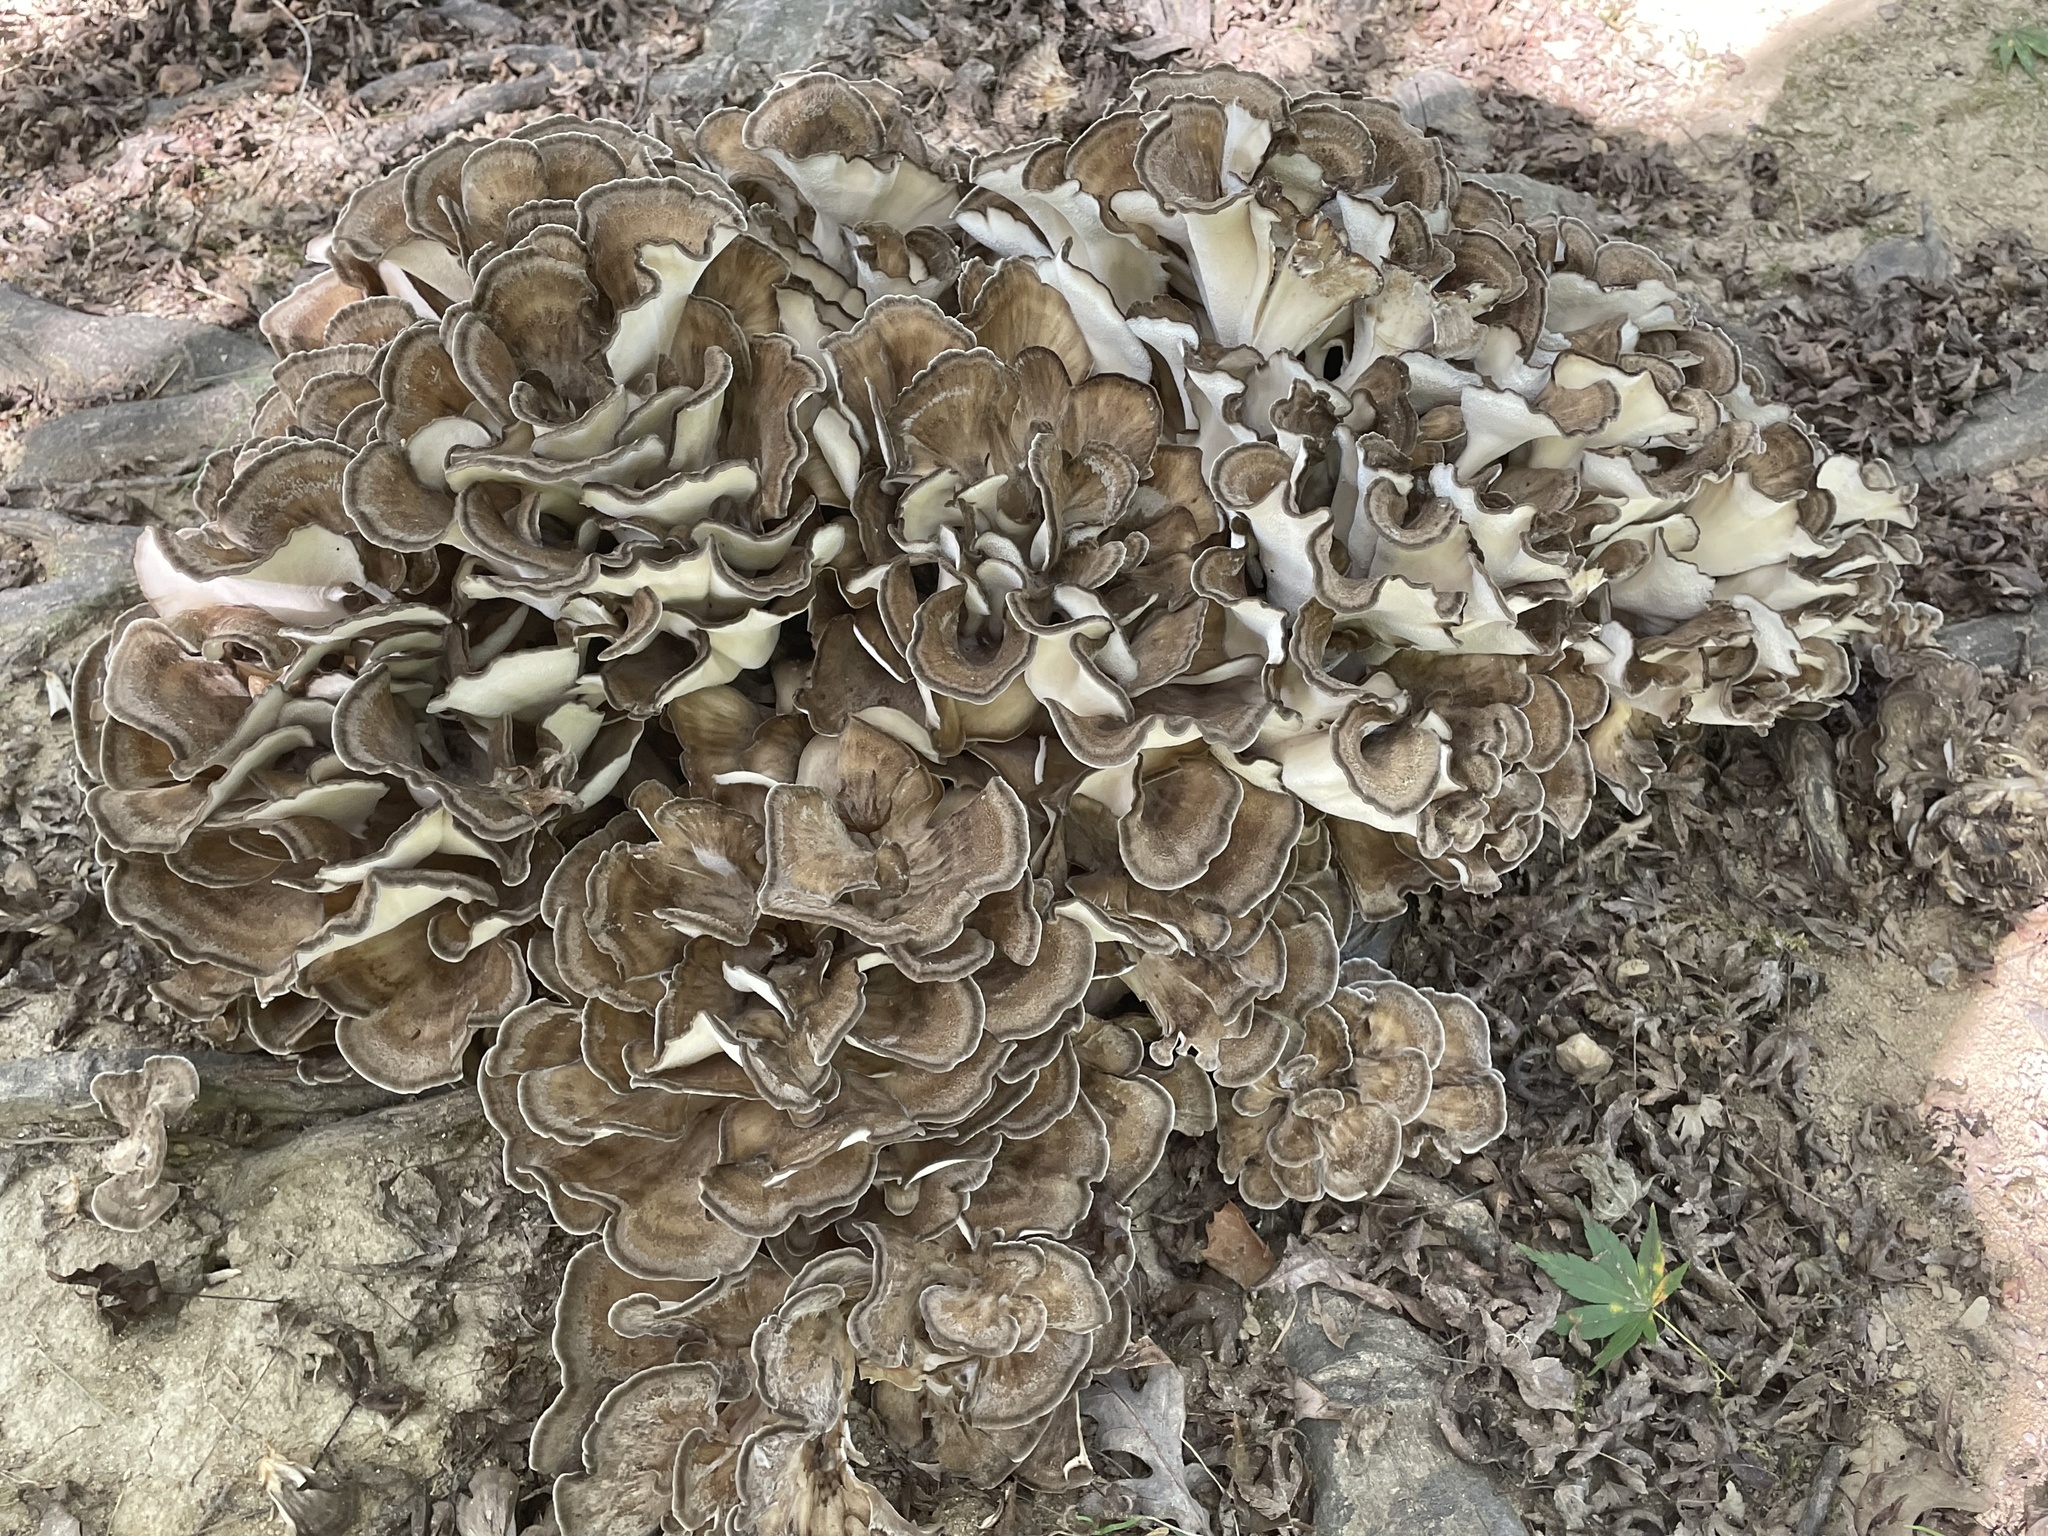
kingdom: Fungi
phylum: Basidiomycota
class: Agaricomycetes
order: Polyporales
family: Grifolaceae
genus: Grifola
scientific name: Grifola frondosa
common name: Hen of the woods
